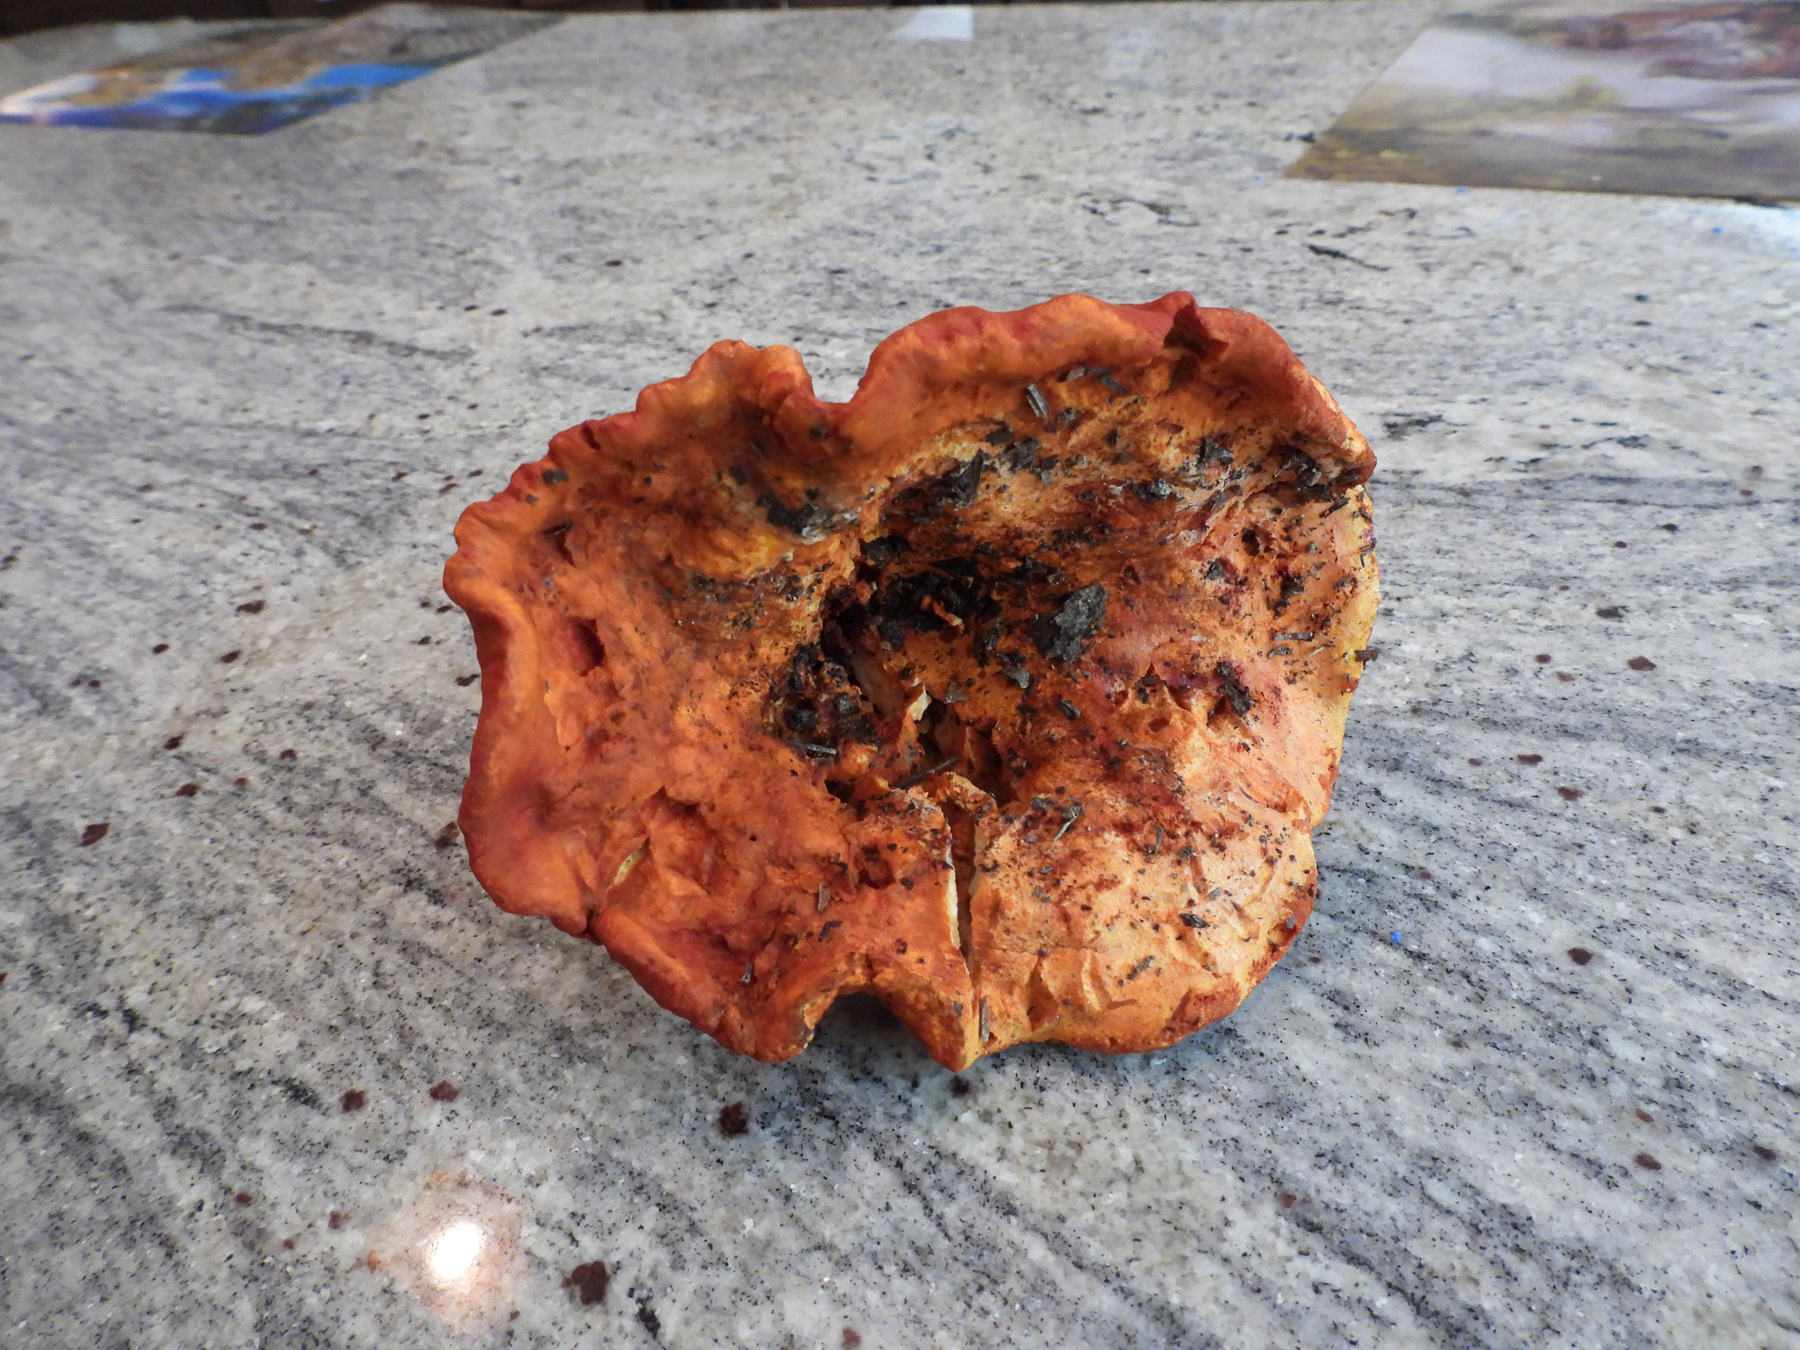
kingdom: Fungi
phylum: Ascomycota
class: Sordariomycetes
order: Hypocreales
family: Hypocreaceae
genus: Hypomyces
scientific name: Hypomyces lactifluorum
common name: Lobster mushroom
